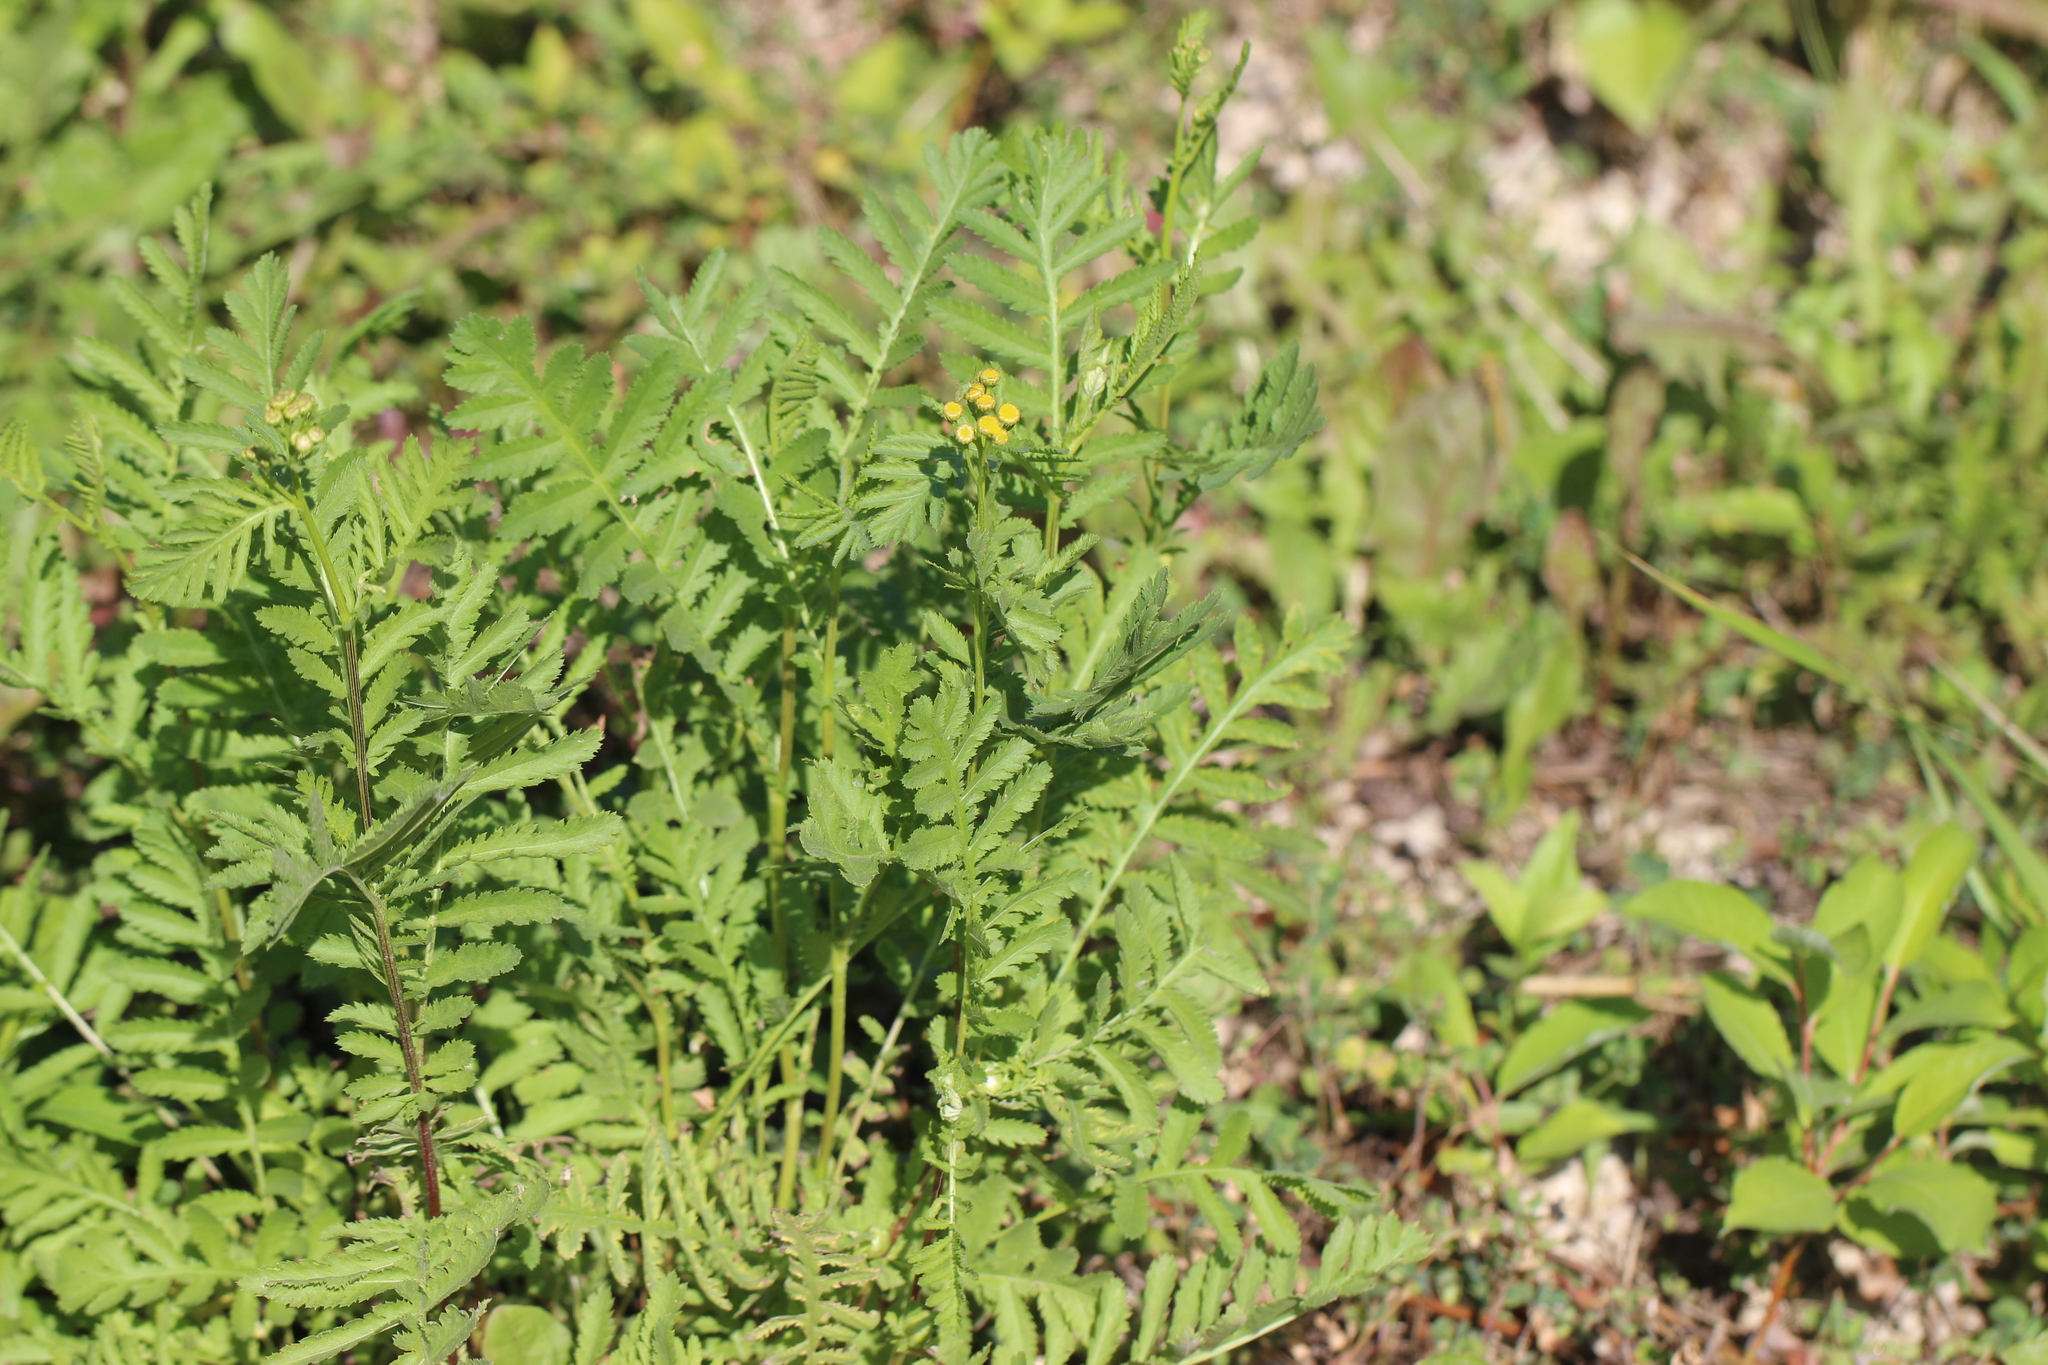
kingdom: Plantae
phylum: Tracheophyta
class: Magnoliopsida
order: Asterales
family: Asteraceae
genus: Tanacetum
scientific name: Tanacetum vulgare
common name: Common tansy
